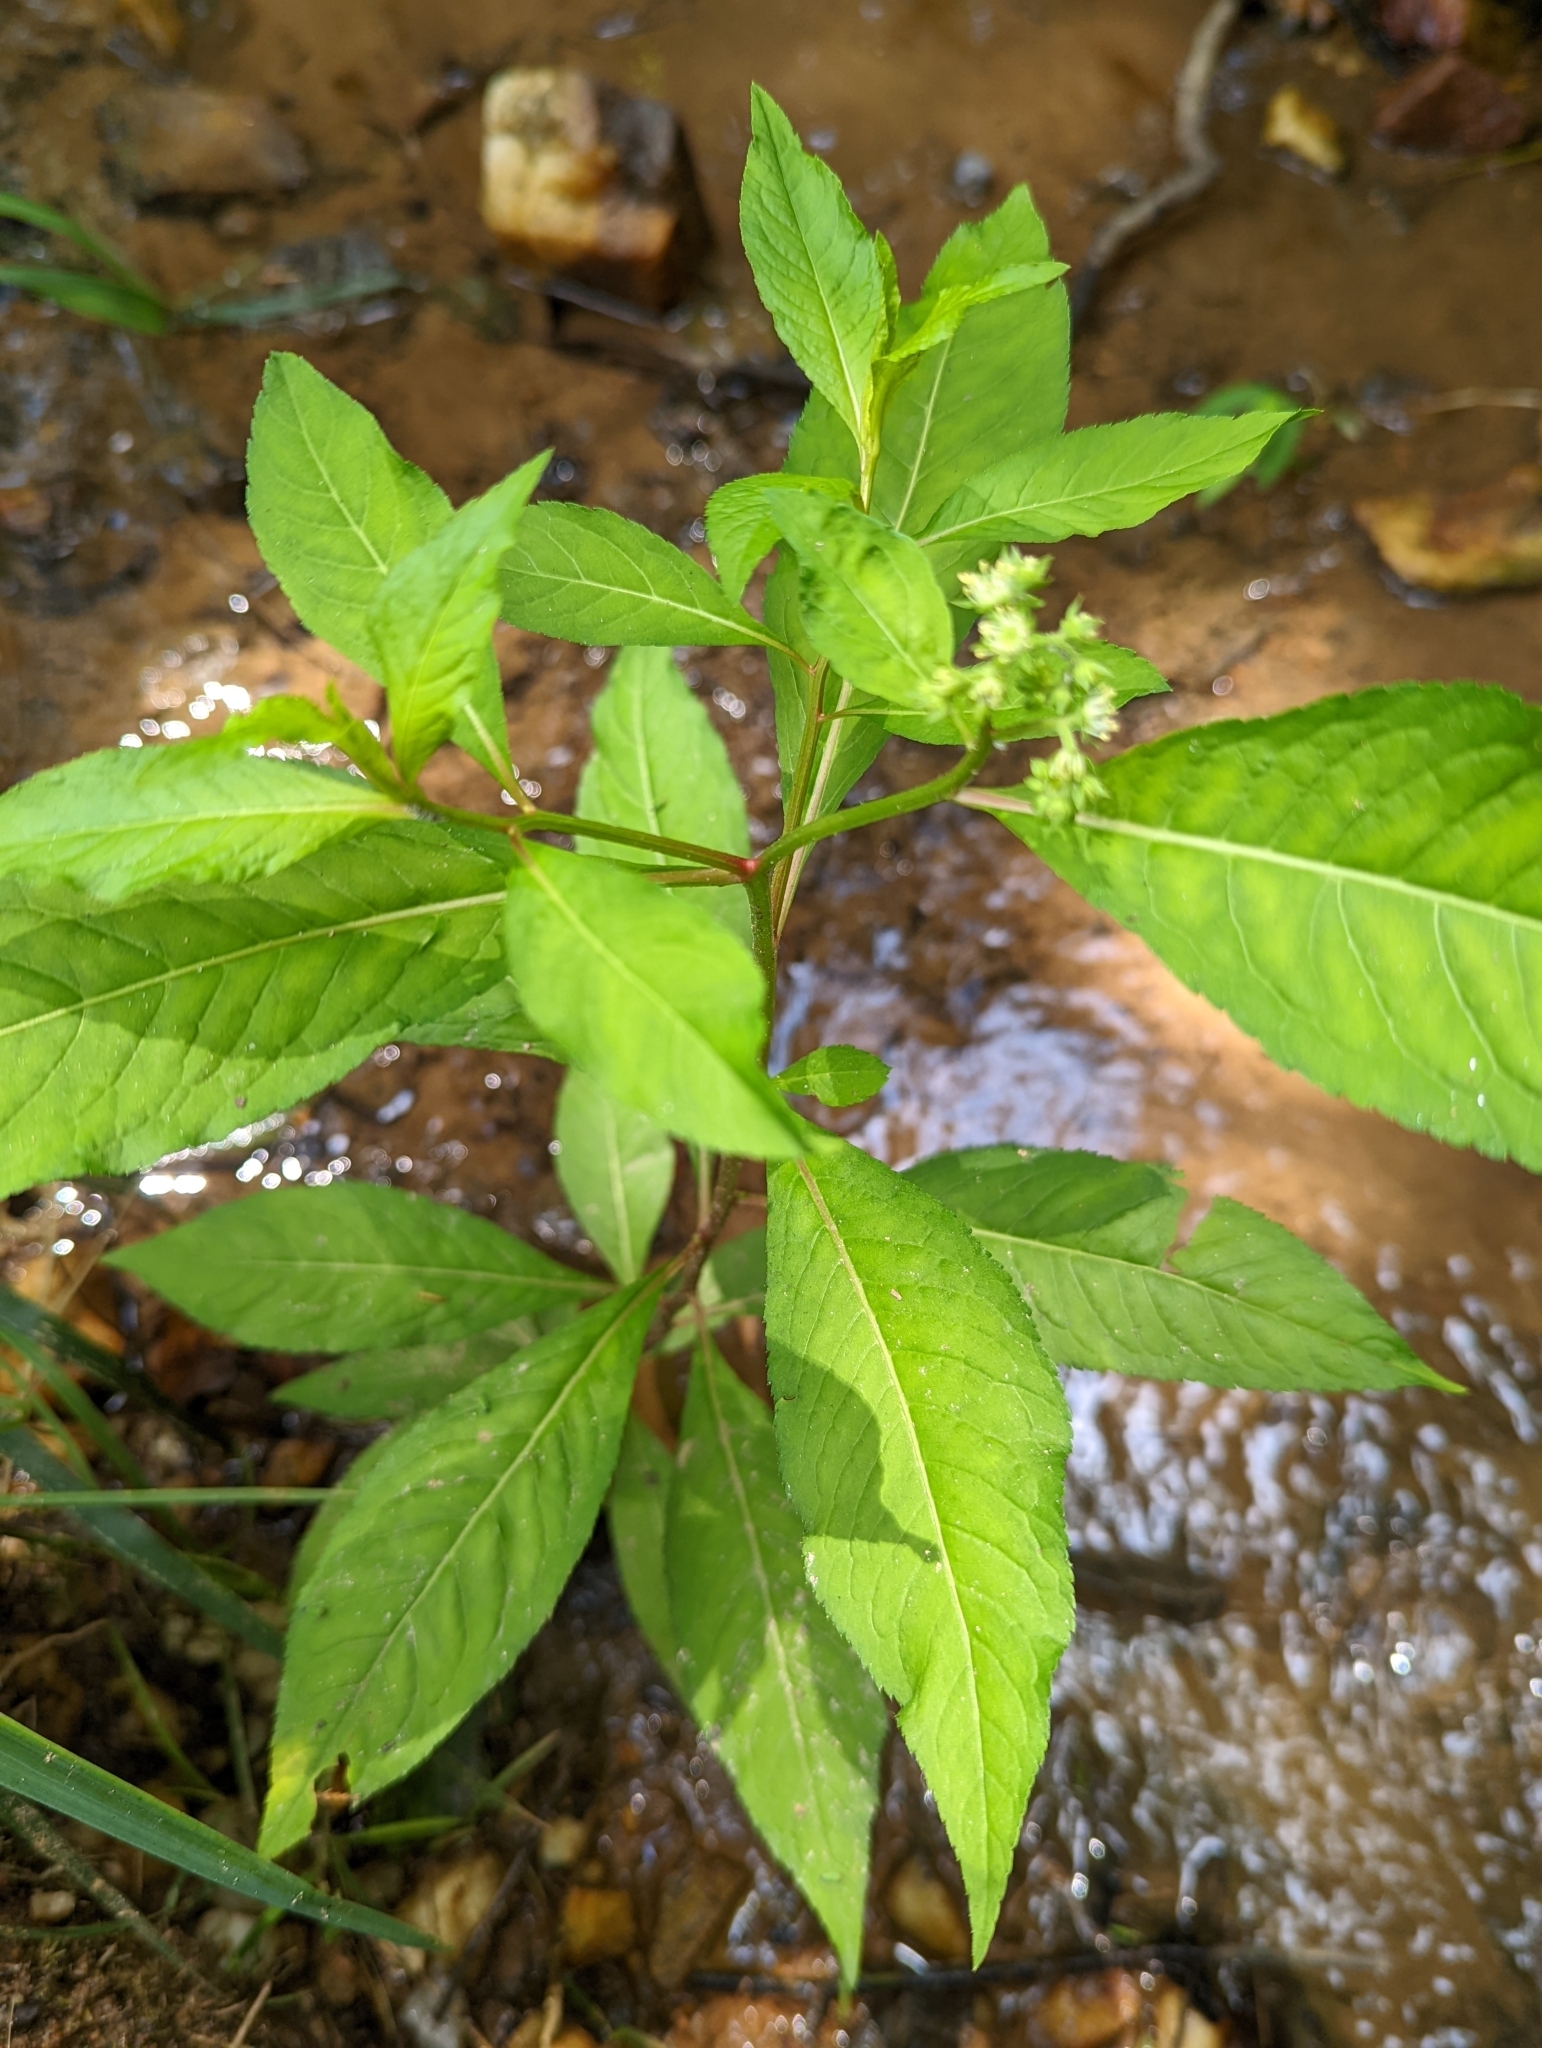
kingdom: Plantae
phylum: Tracheophyta
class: Magnoliopsida
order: Saxifragales
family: Penthoraceae
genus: Penthorum
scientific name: Penthorum sedoides
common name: Ditch stonecrop
